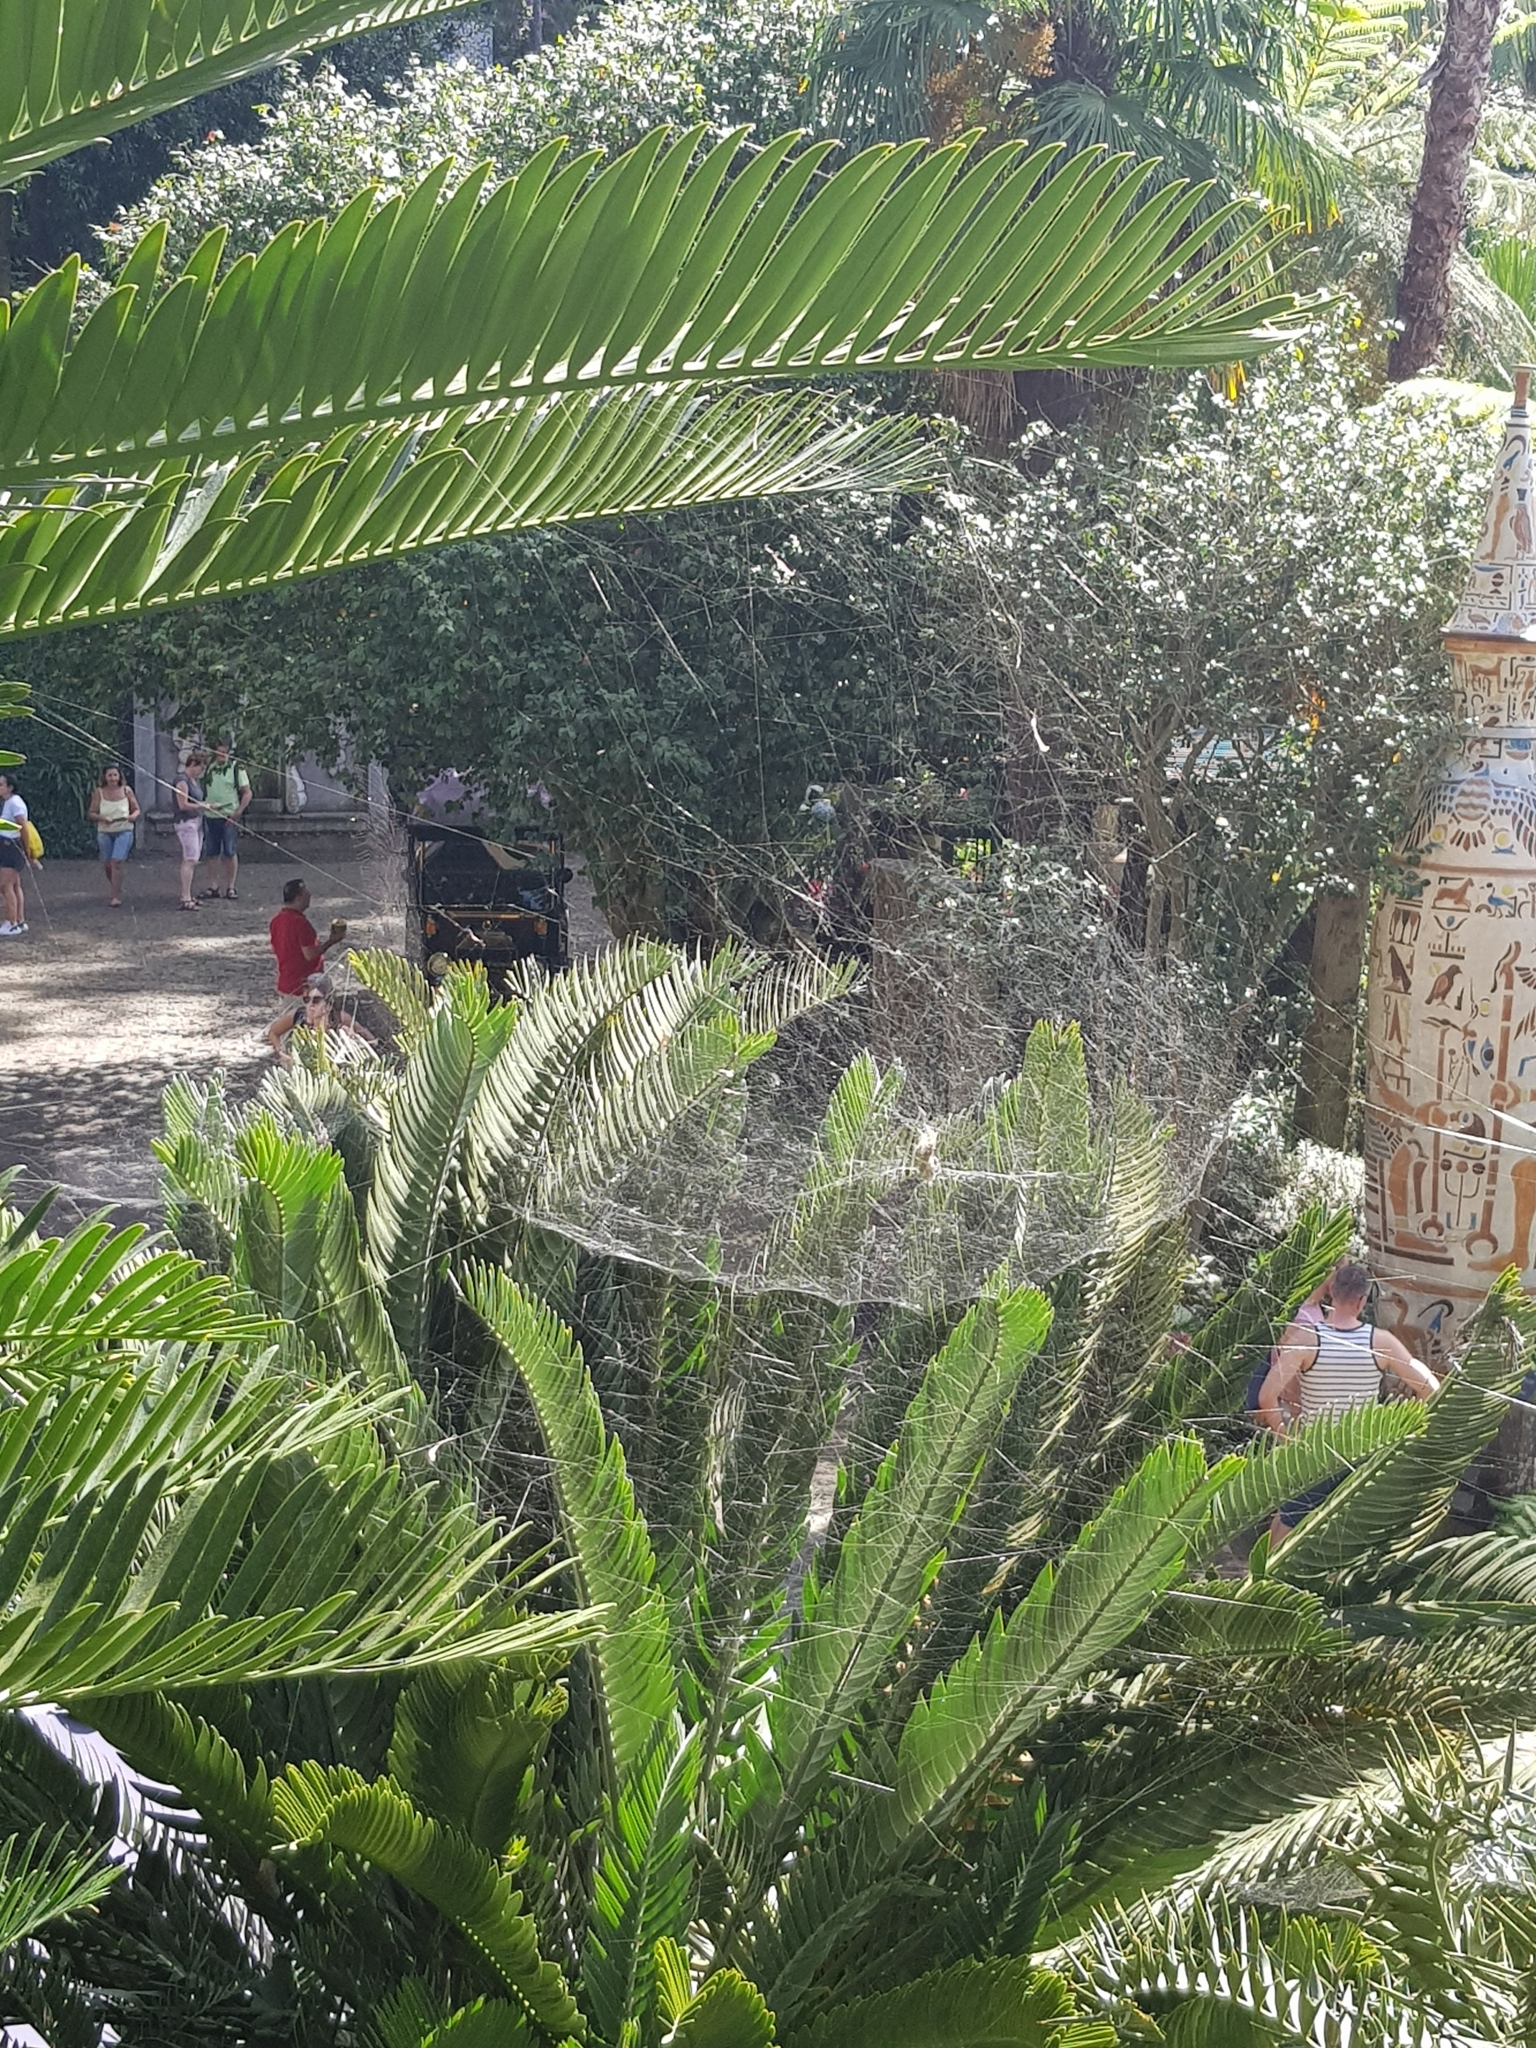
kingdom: Animalia
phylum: Arthropoda
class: Arachnida
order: Araneae
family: Araneidae
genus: Cyrtophora
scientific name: Cyrtophora citricola
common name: Orb weavers
